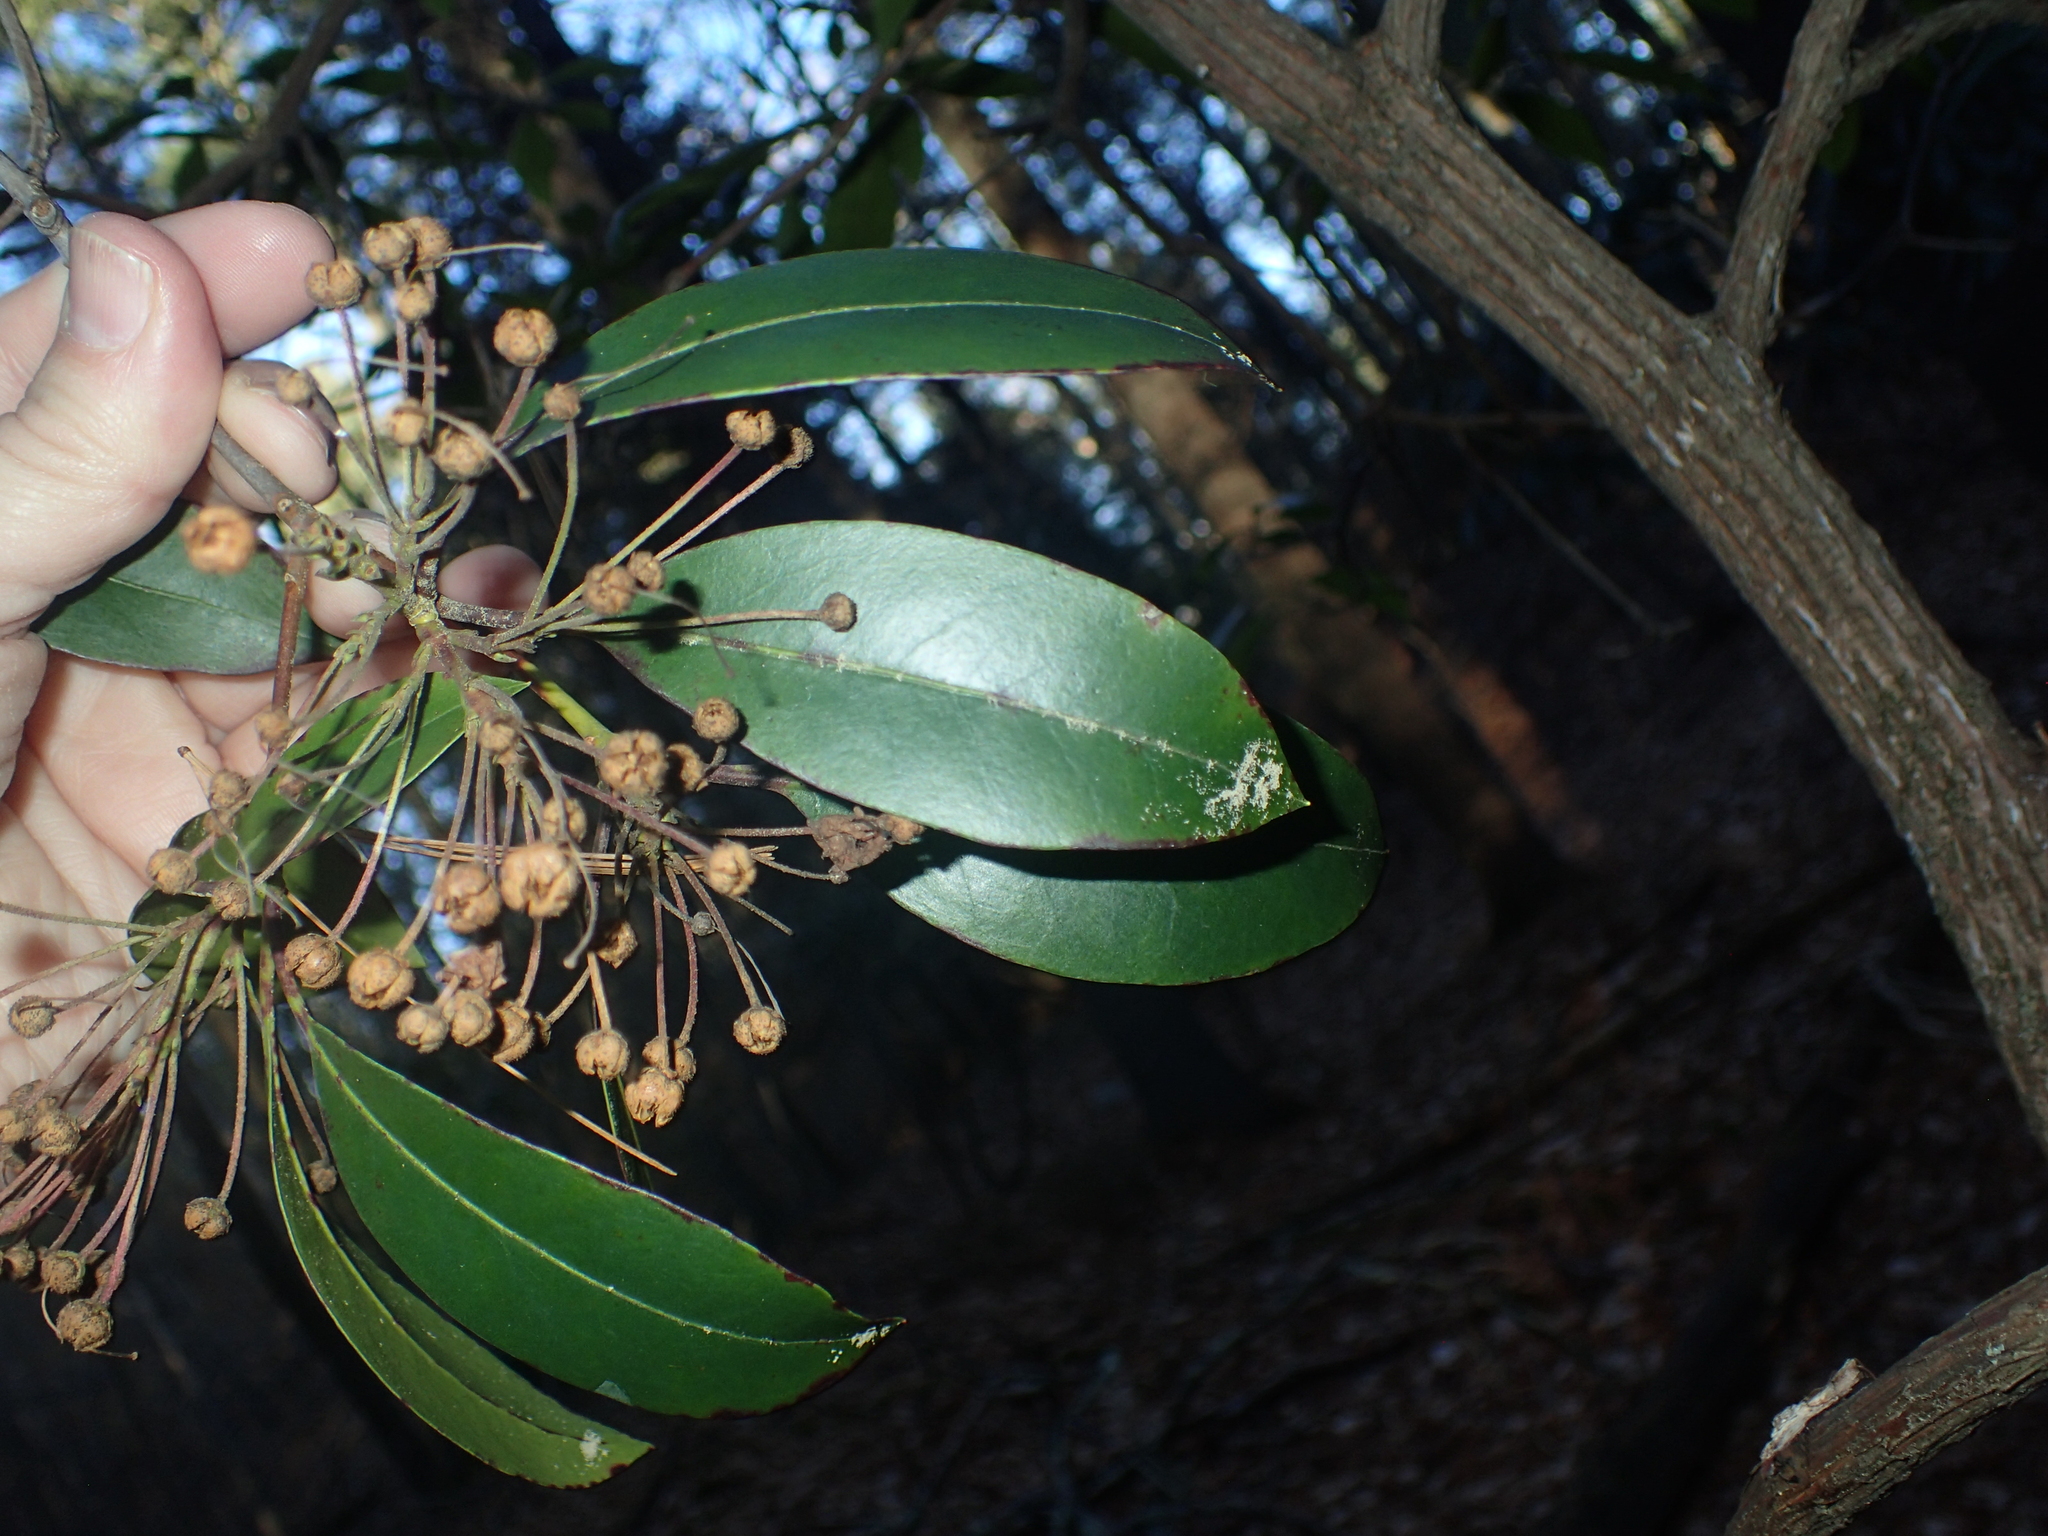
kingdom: Plantae
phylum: Tracheophyta
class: Magnoliopsida
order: Ericales
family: Ericaceae
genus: Kalmia
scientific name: Kalmia latifolia
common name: Mountain-laurel
